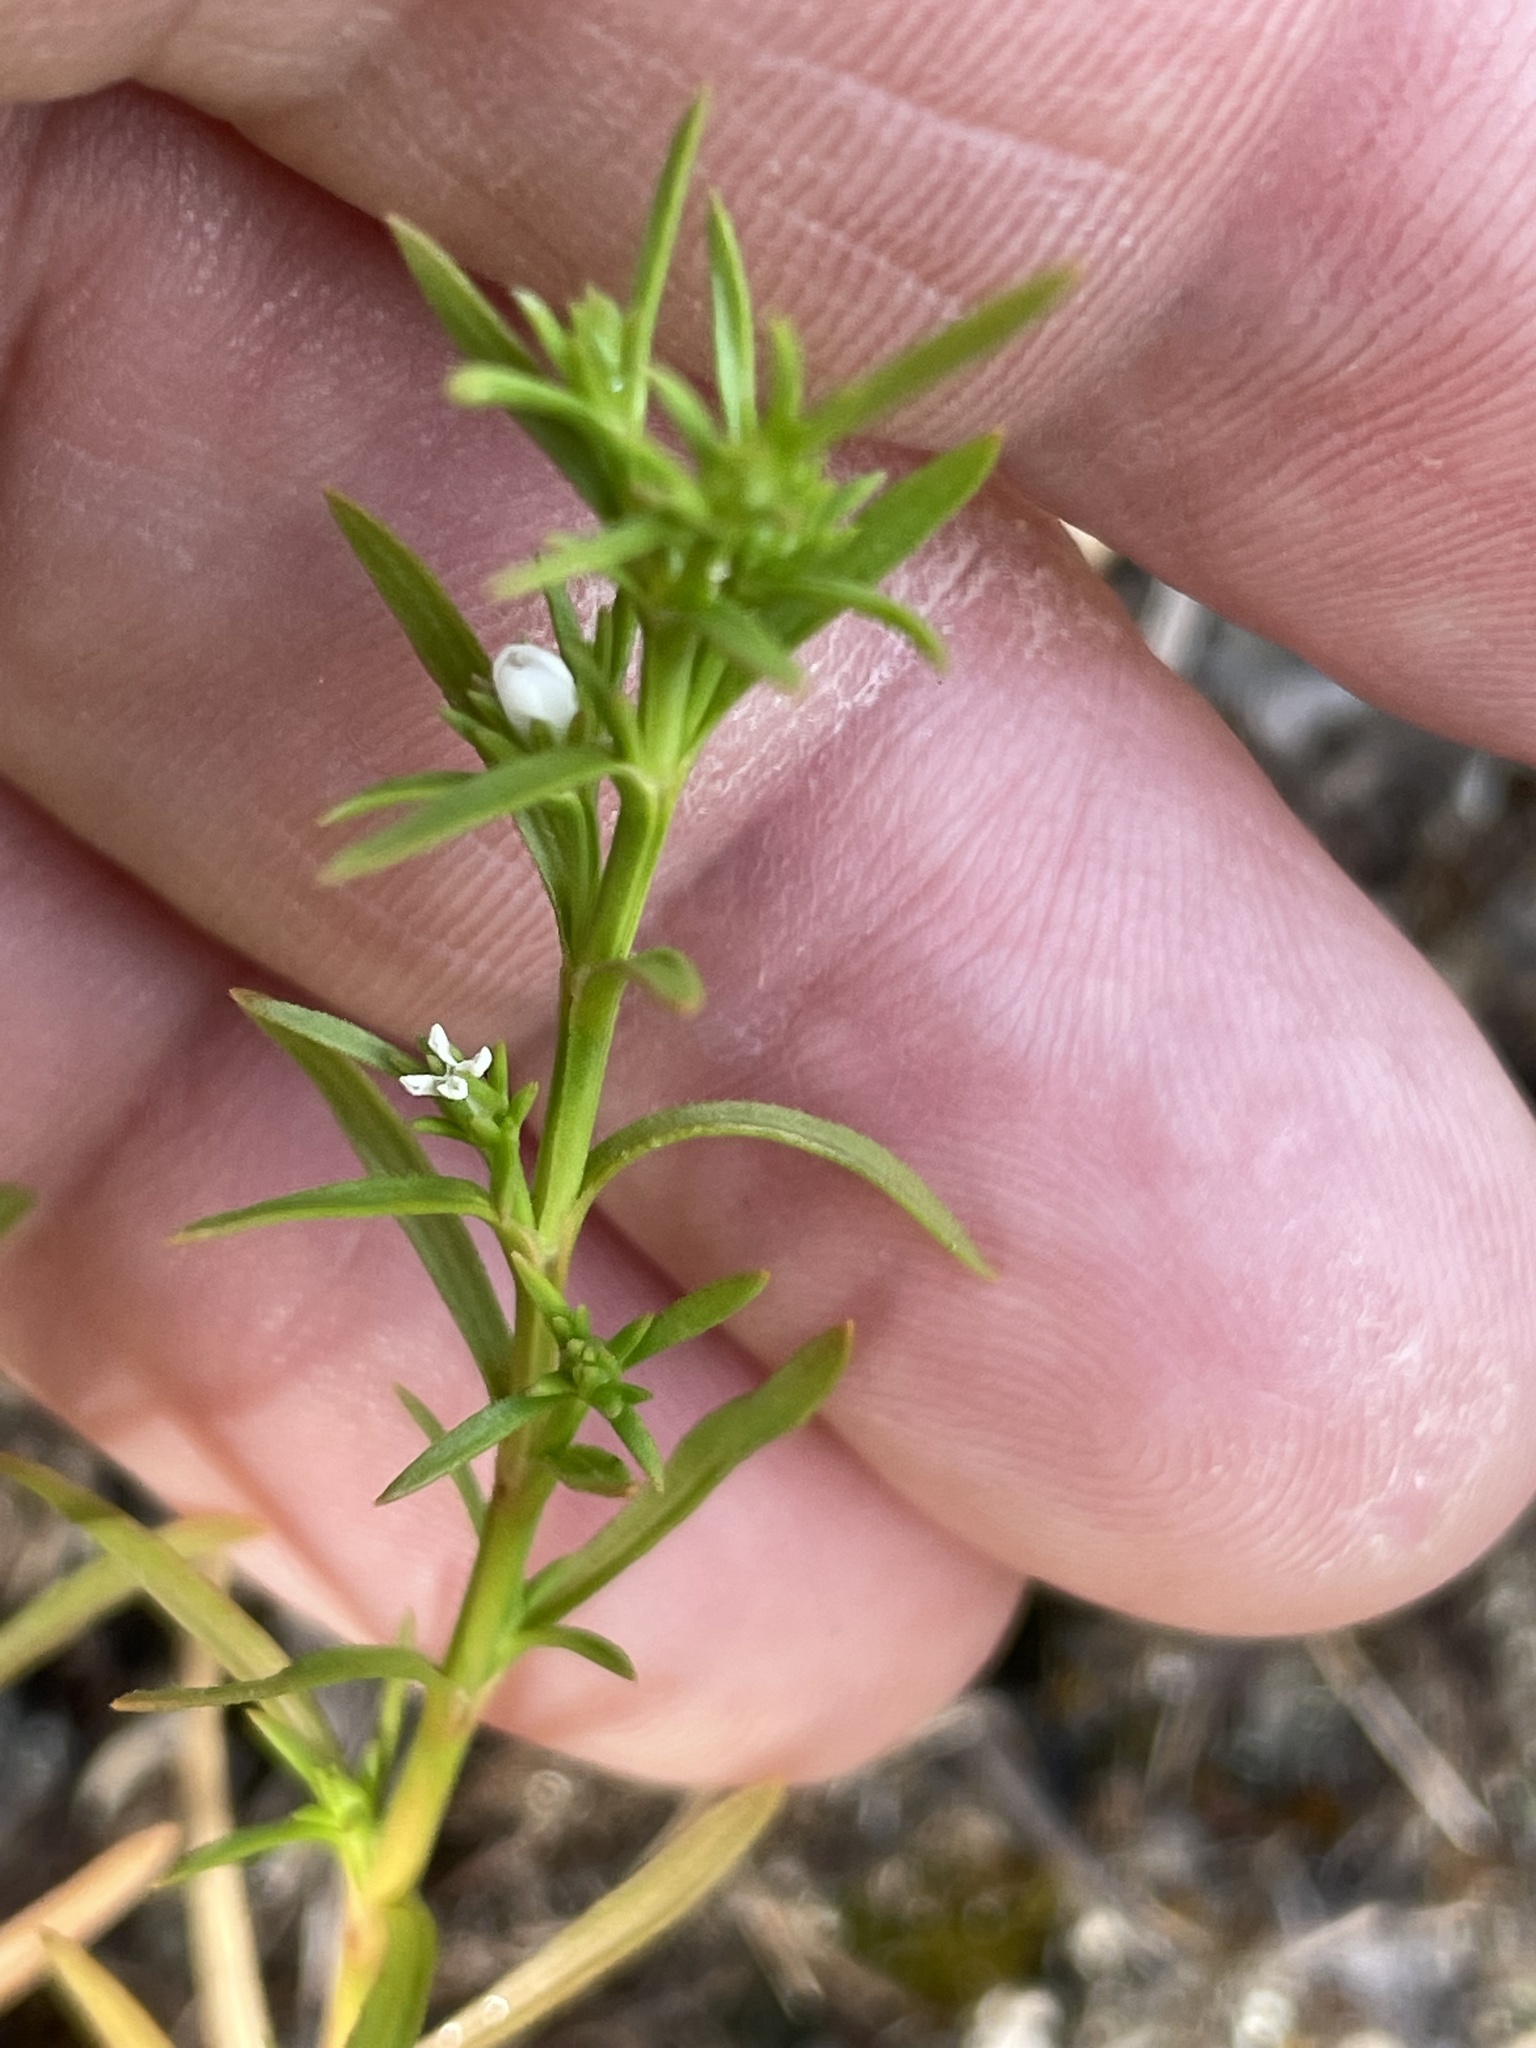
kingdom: Plantae
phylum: Tracheophyta
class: Magnoliopsida
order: Lamiales
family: Tetrachondraceae
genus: Polypremum
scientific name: Polypremum procumbens
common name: Juniper-leaf
